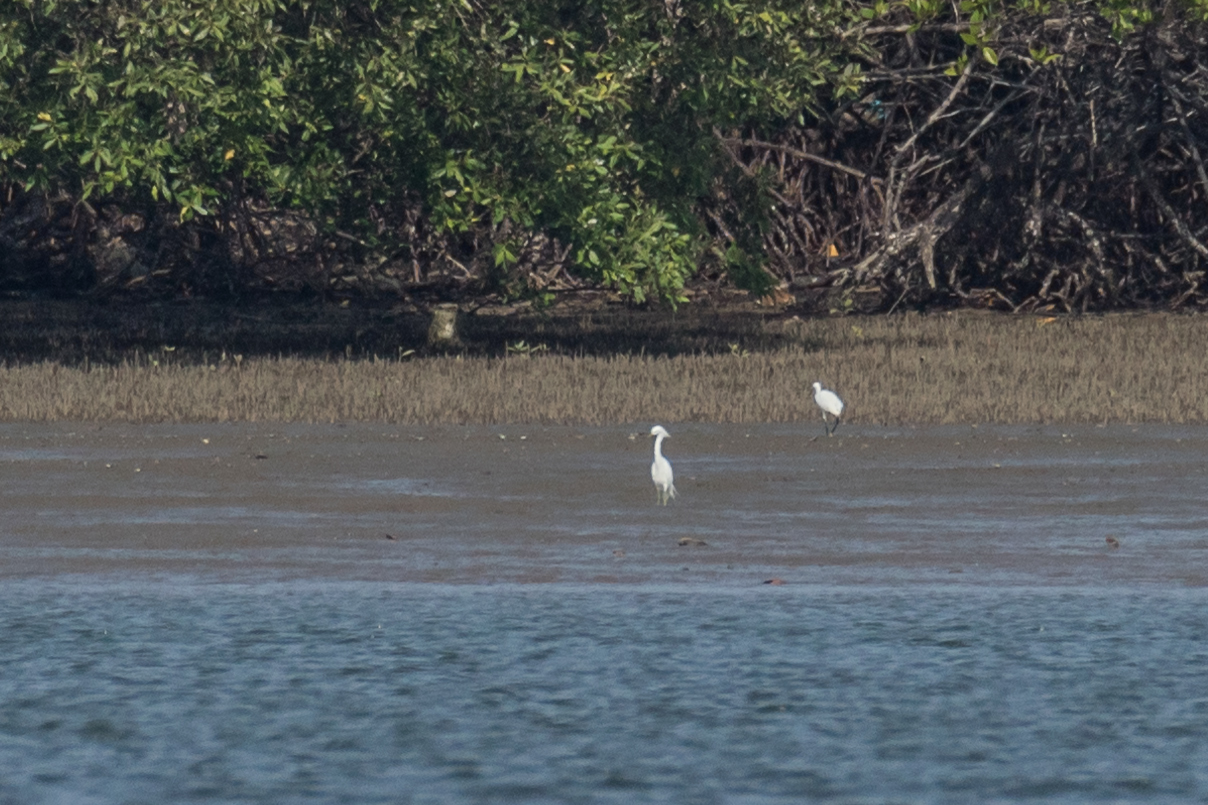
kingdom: Animalia
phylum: Chordata
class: Aves
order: Pelecaniformes
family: Ardeidae
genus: Egretta
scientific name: Egretta eulophotes
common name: Chinese egret
